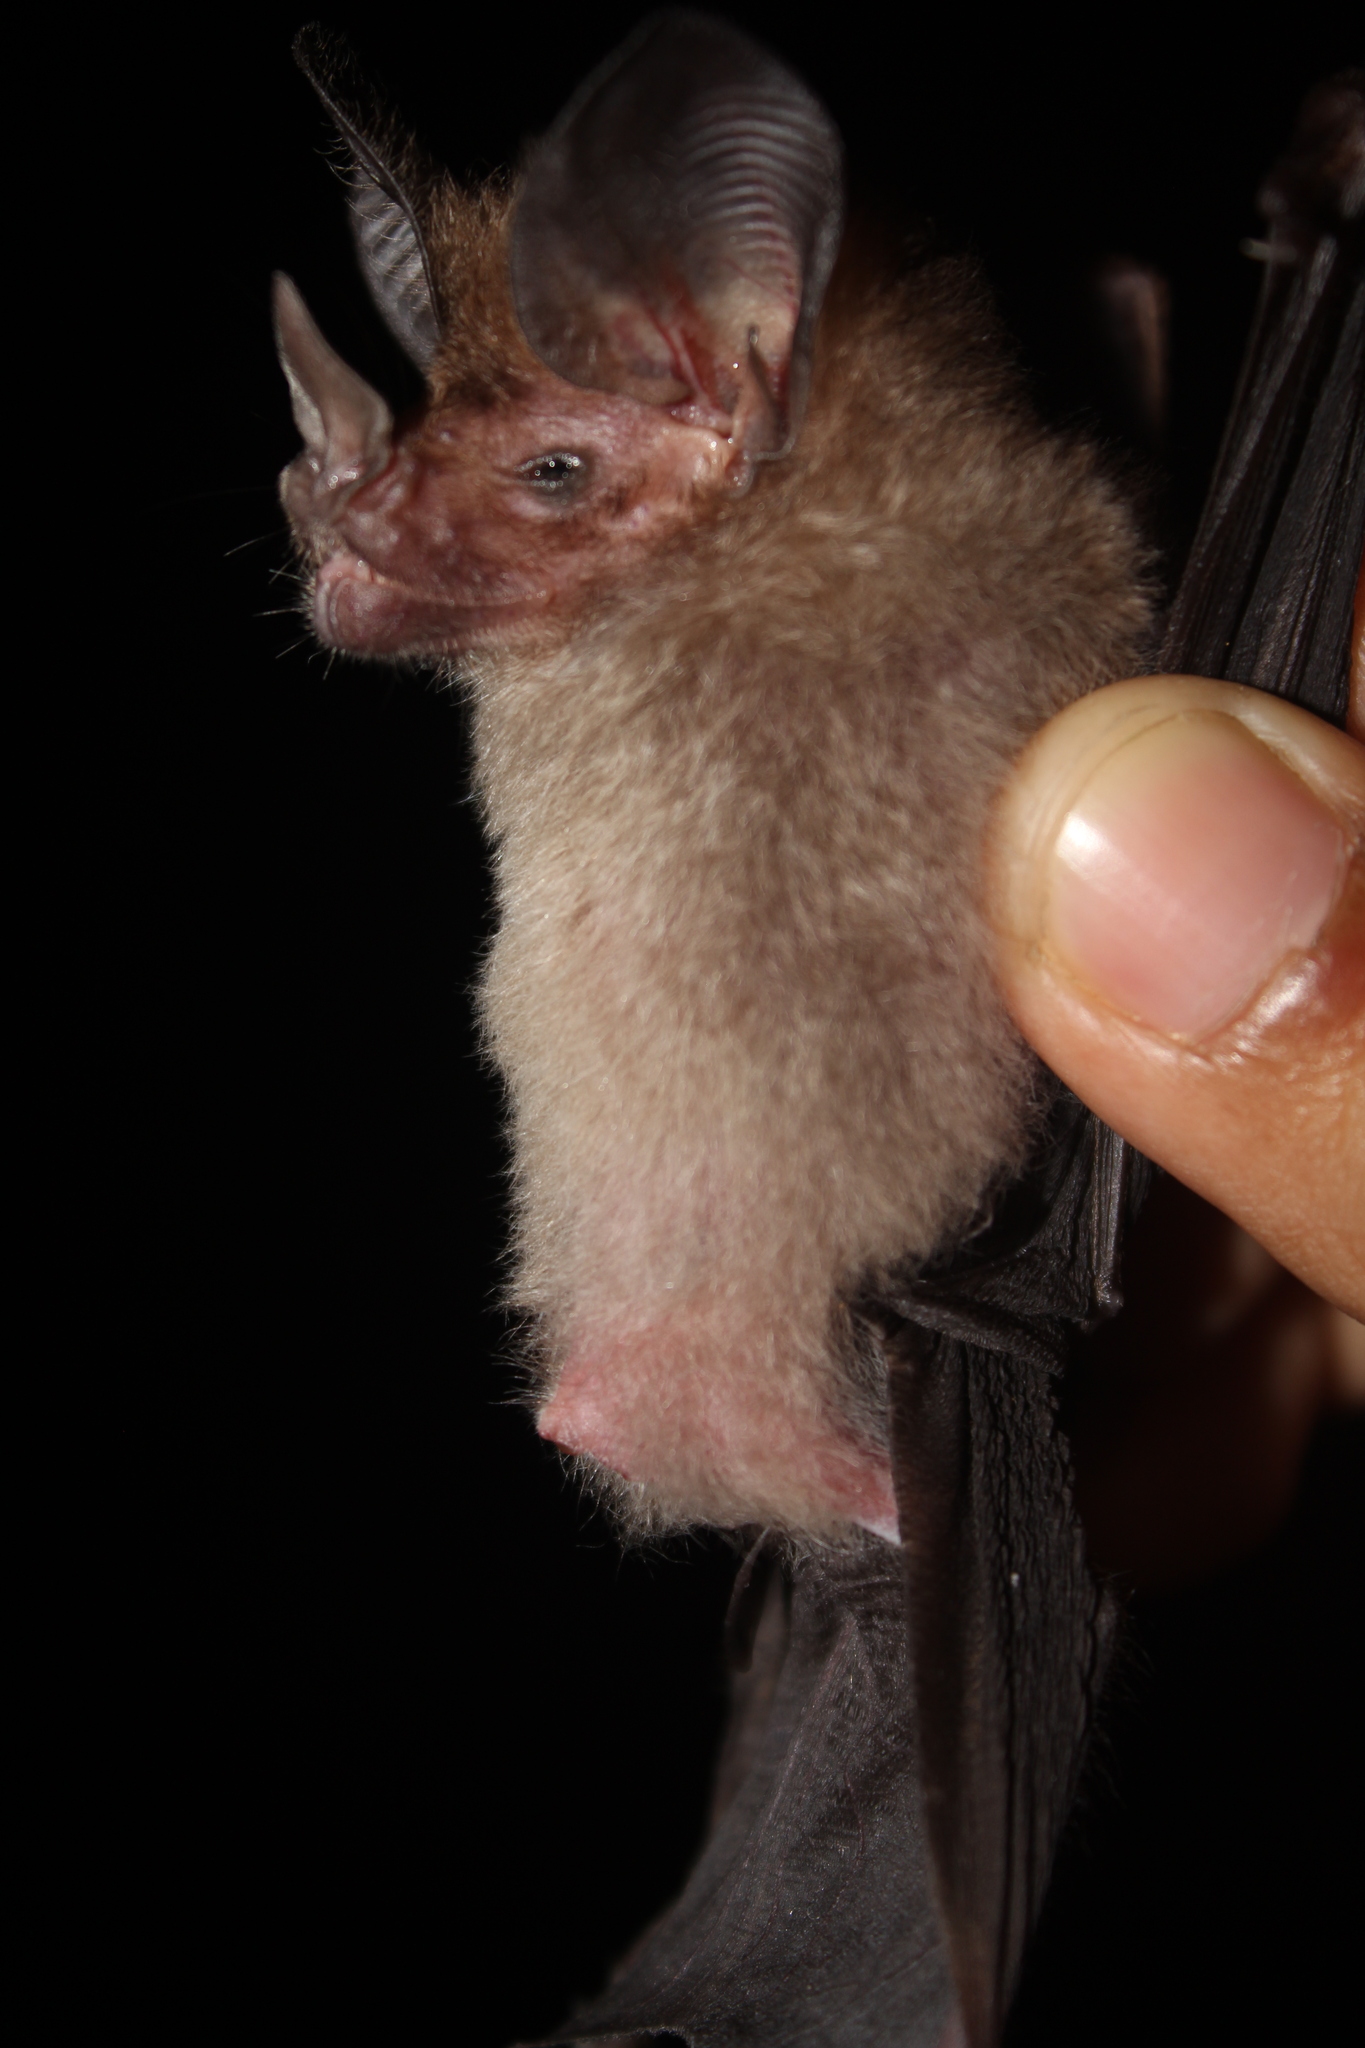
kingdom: Animalia
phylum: Chordata
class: Mammalia
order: Chiroptera
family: Phyllostomidae
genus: Micronycteris
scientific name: Micronycteris hirsuta
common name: Hairy big-eared bat
